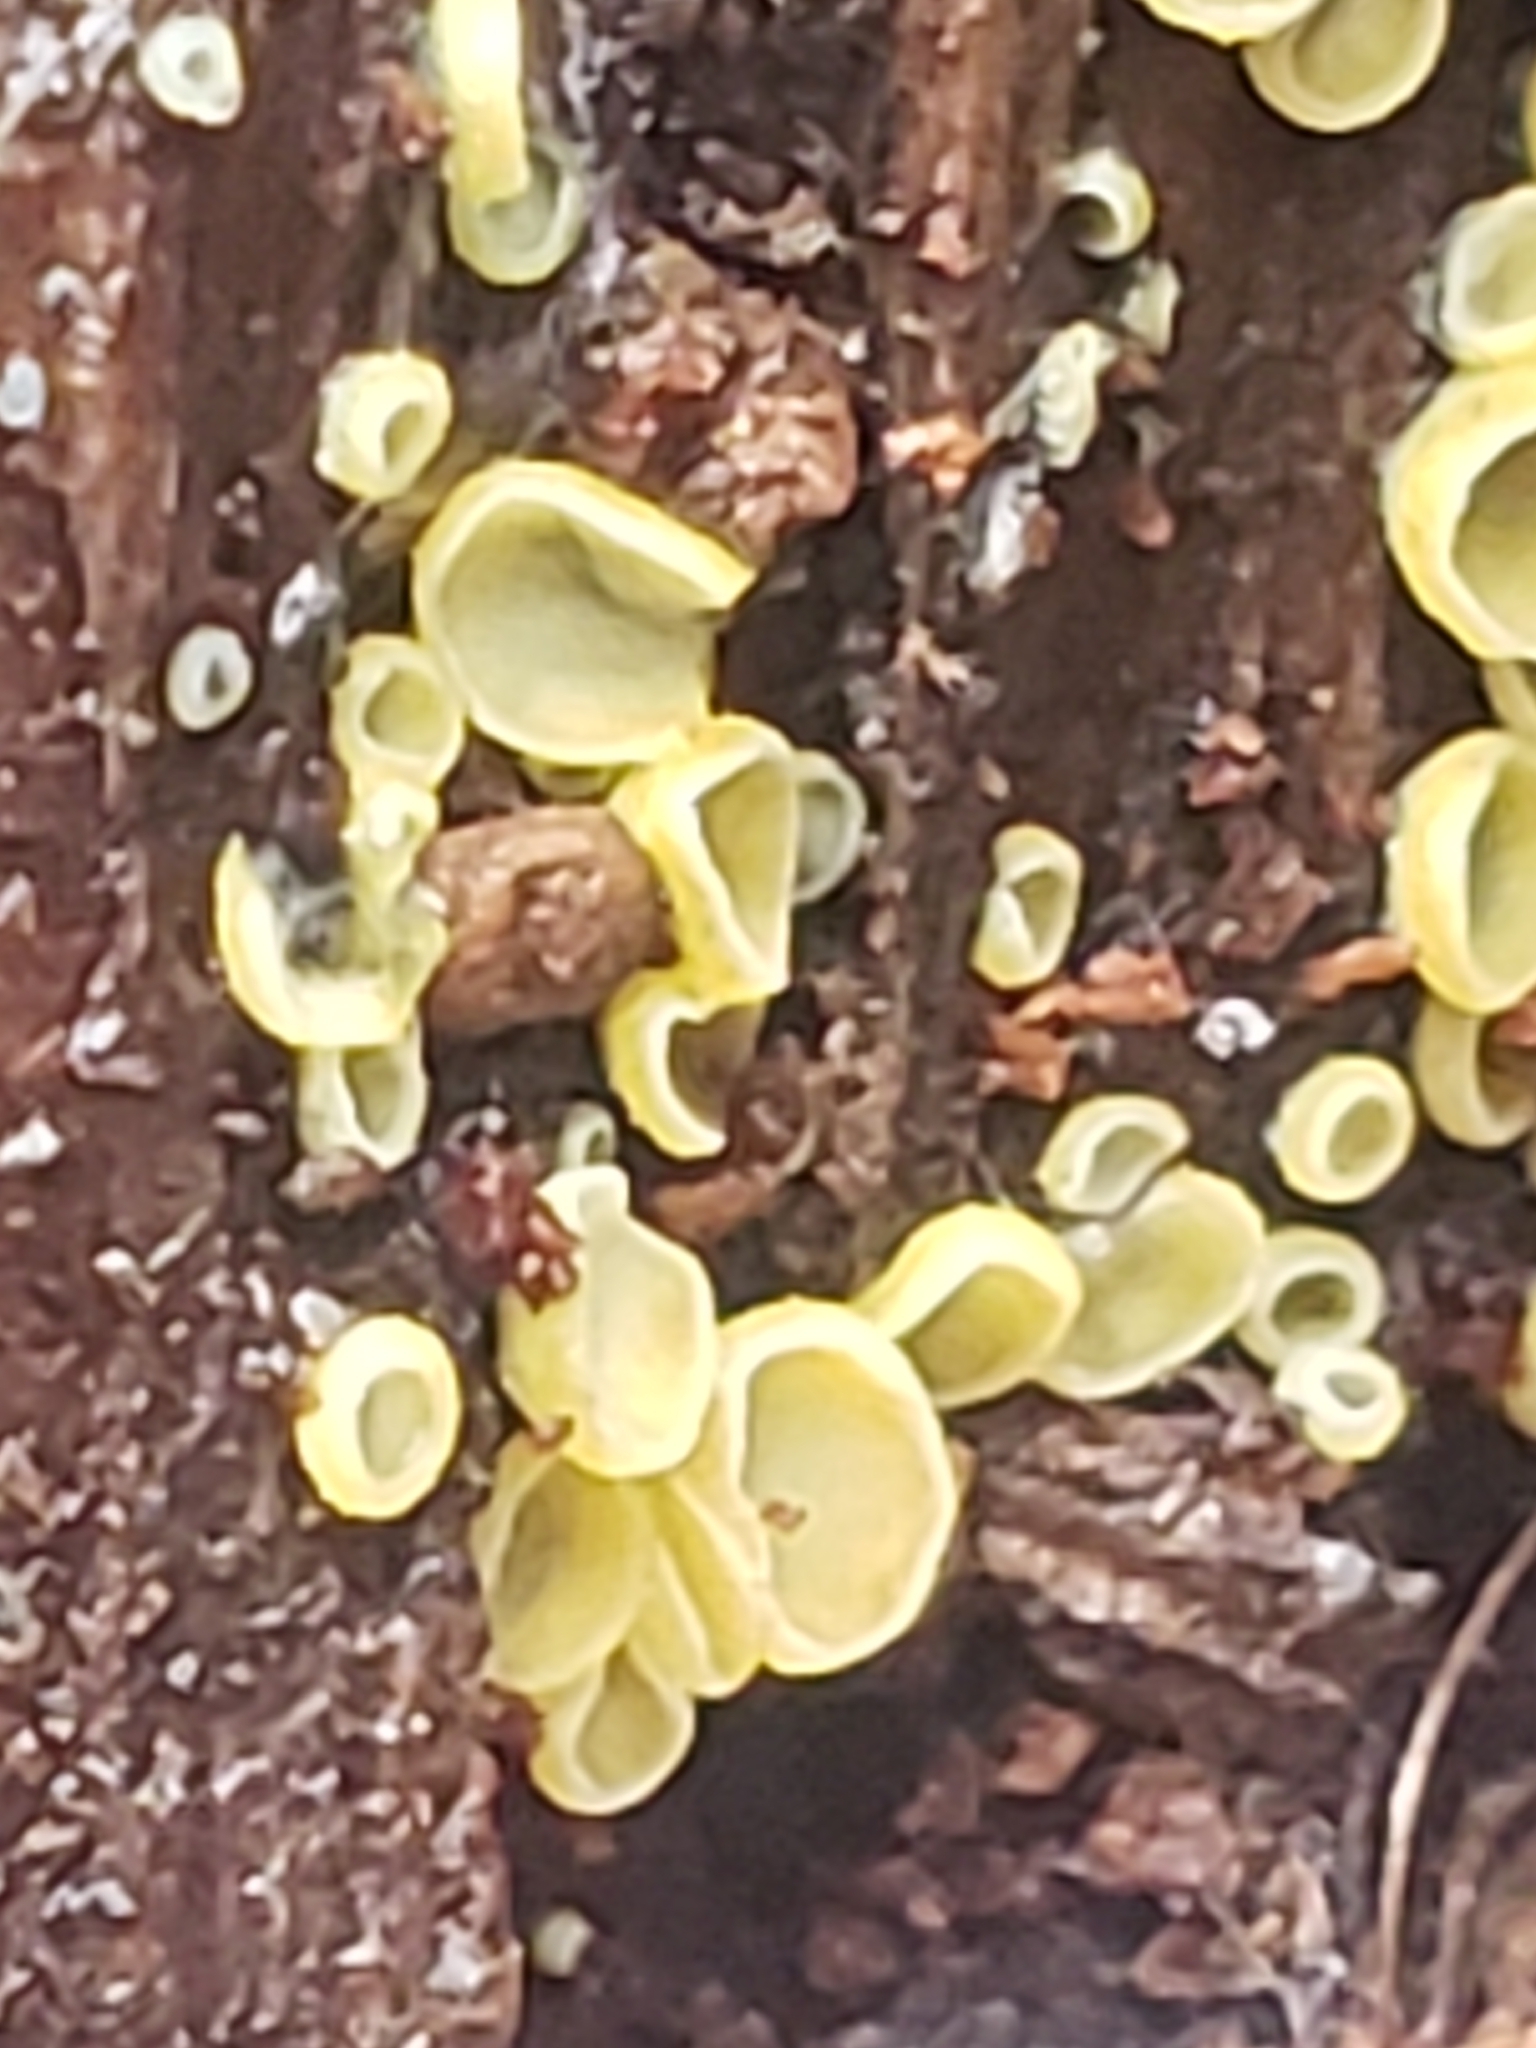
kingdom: Fungi
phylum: Ascomycota
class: Leotiomycetes
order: Helotiales
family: Chlorospleniaceae
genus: Chlorosplenium
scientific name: Chlorosplenium chlora
